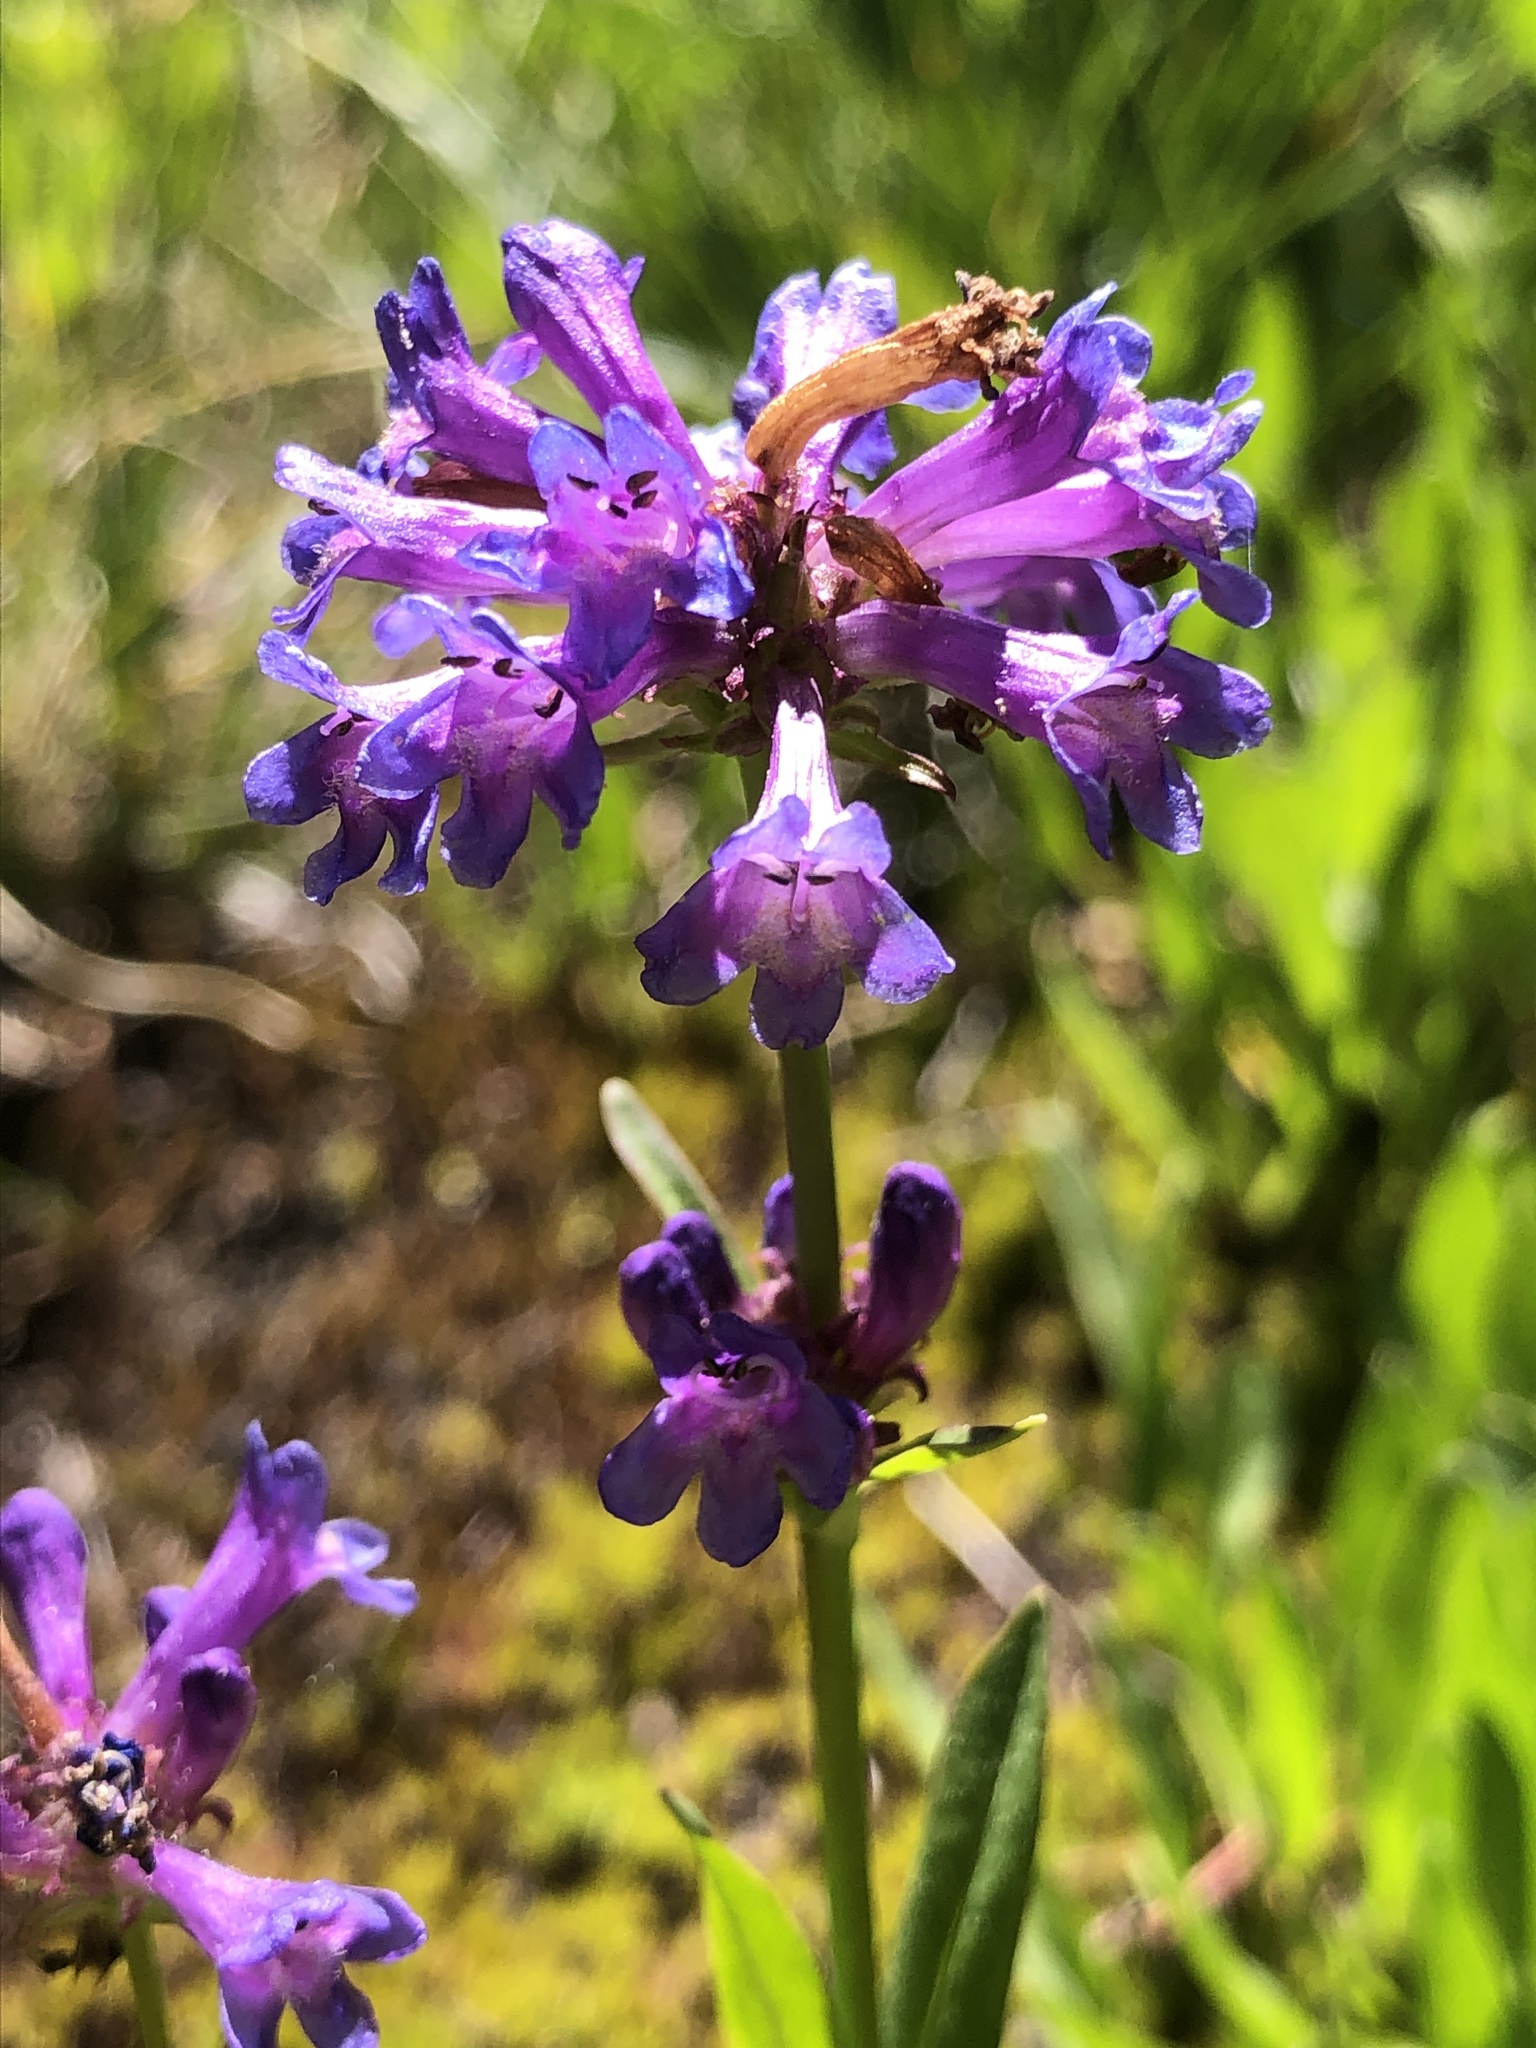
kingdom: Plantae
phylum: Tracheophyta
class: Magnoliopsida
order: Lamiales
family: Plantaginaceae
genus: Penstemon
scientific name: Penstemon rydbergii
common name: Rydberg's beardtongue
